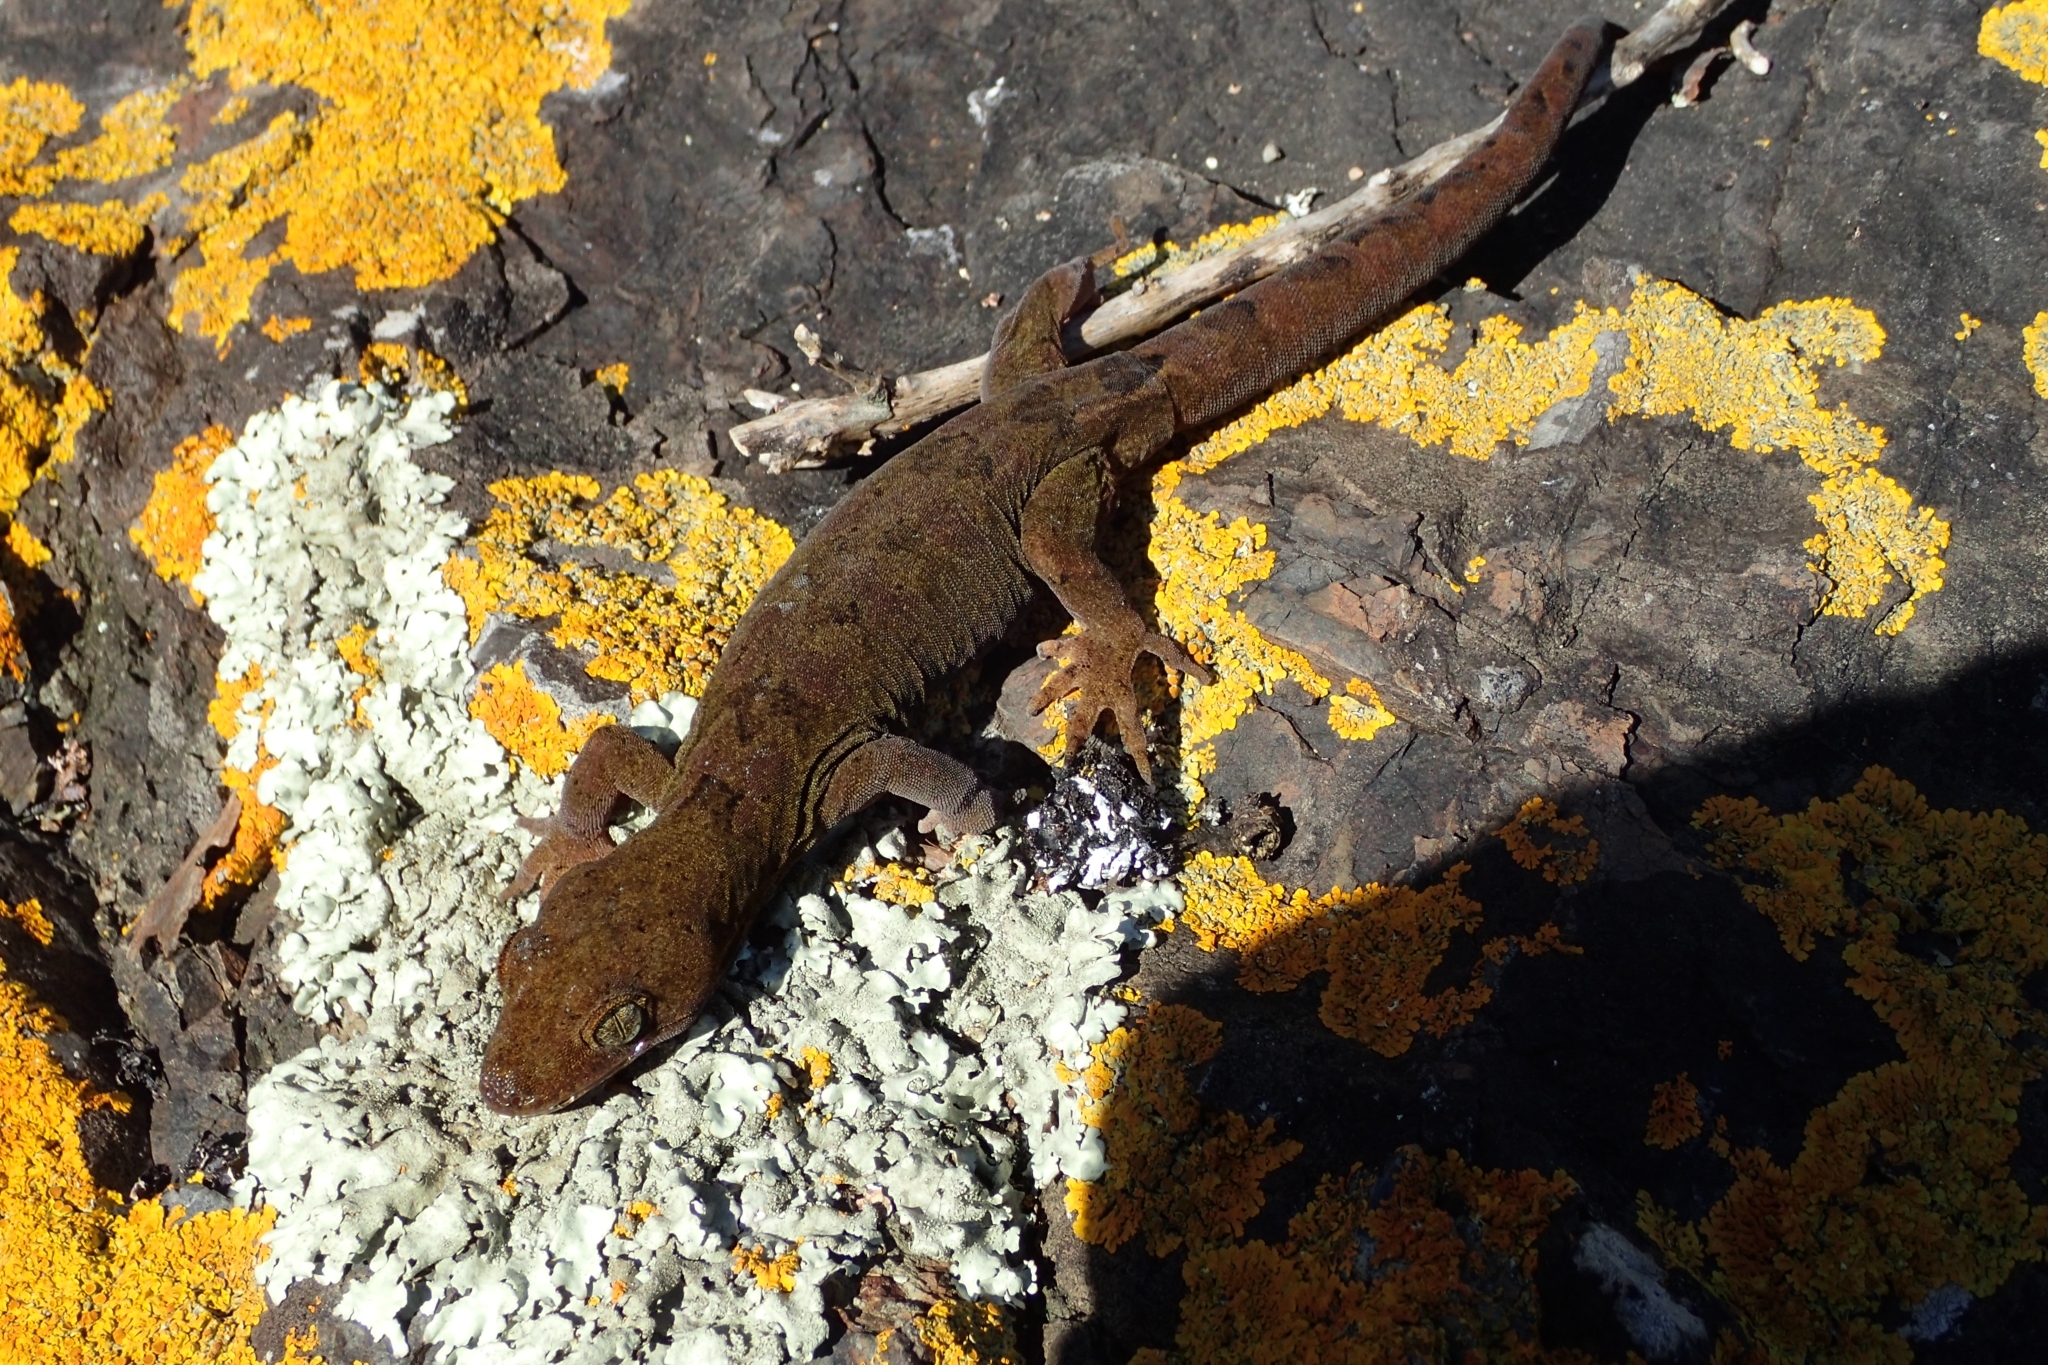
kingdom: Animalia
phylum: Chordata
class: Squamata
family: Diplodactylidae
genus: Dactylocnemis
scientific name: Dactylocnemis pacificus
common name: Pacific gecko
